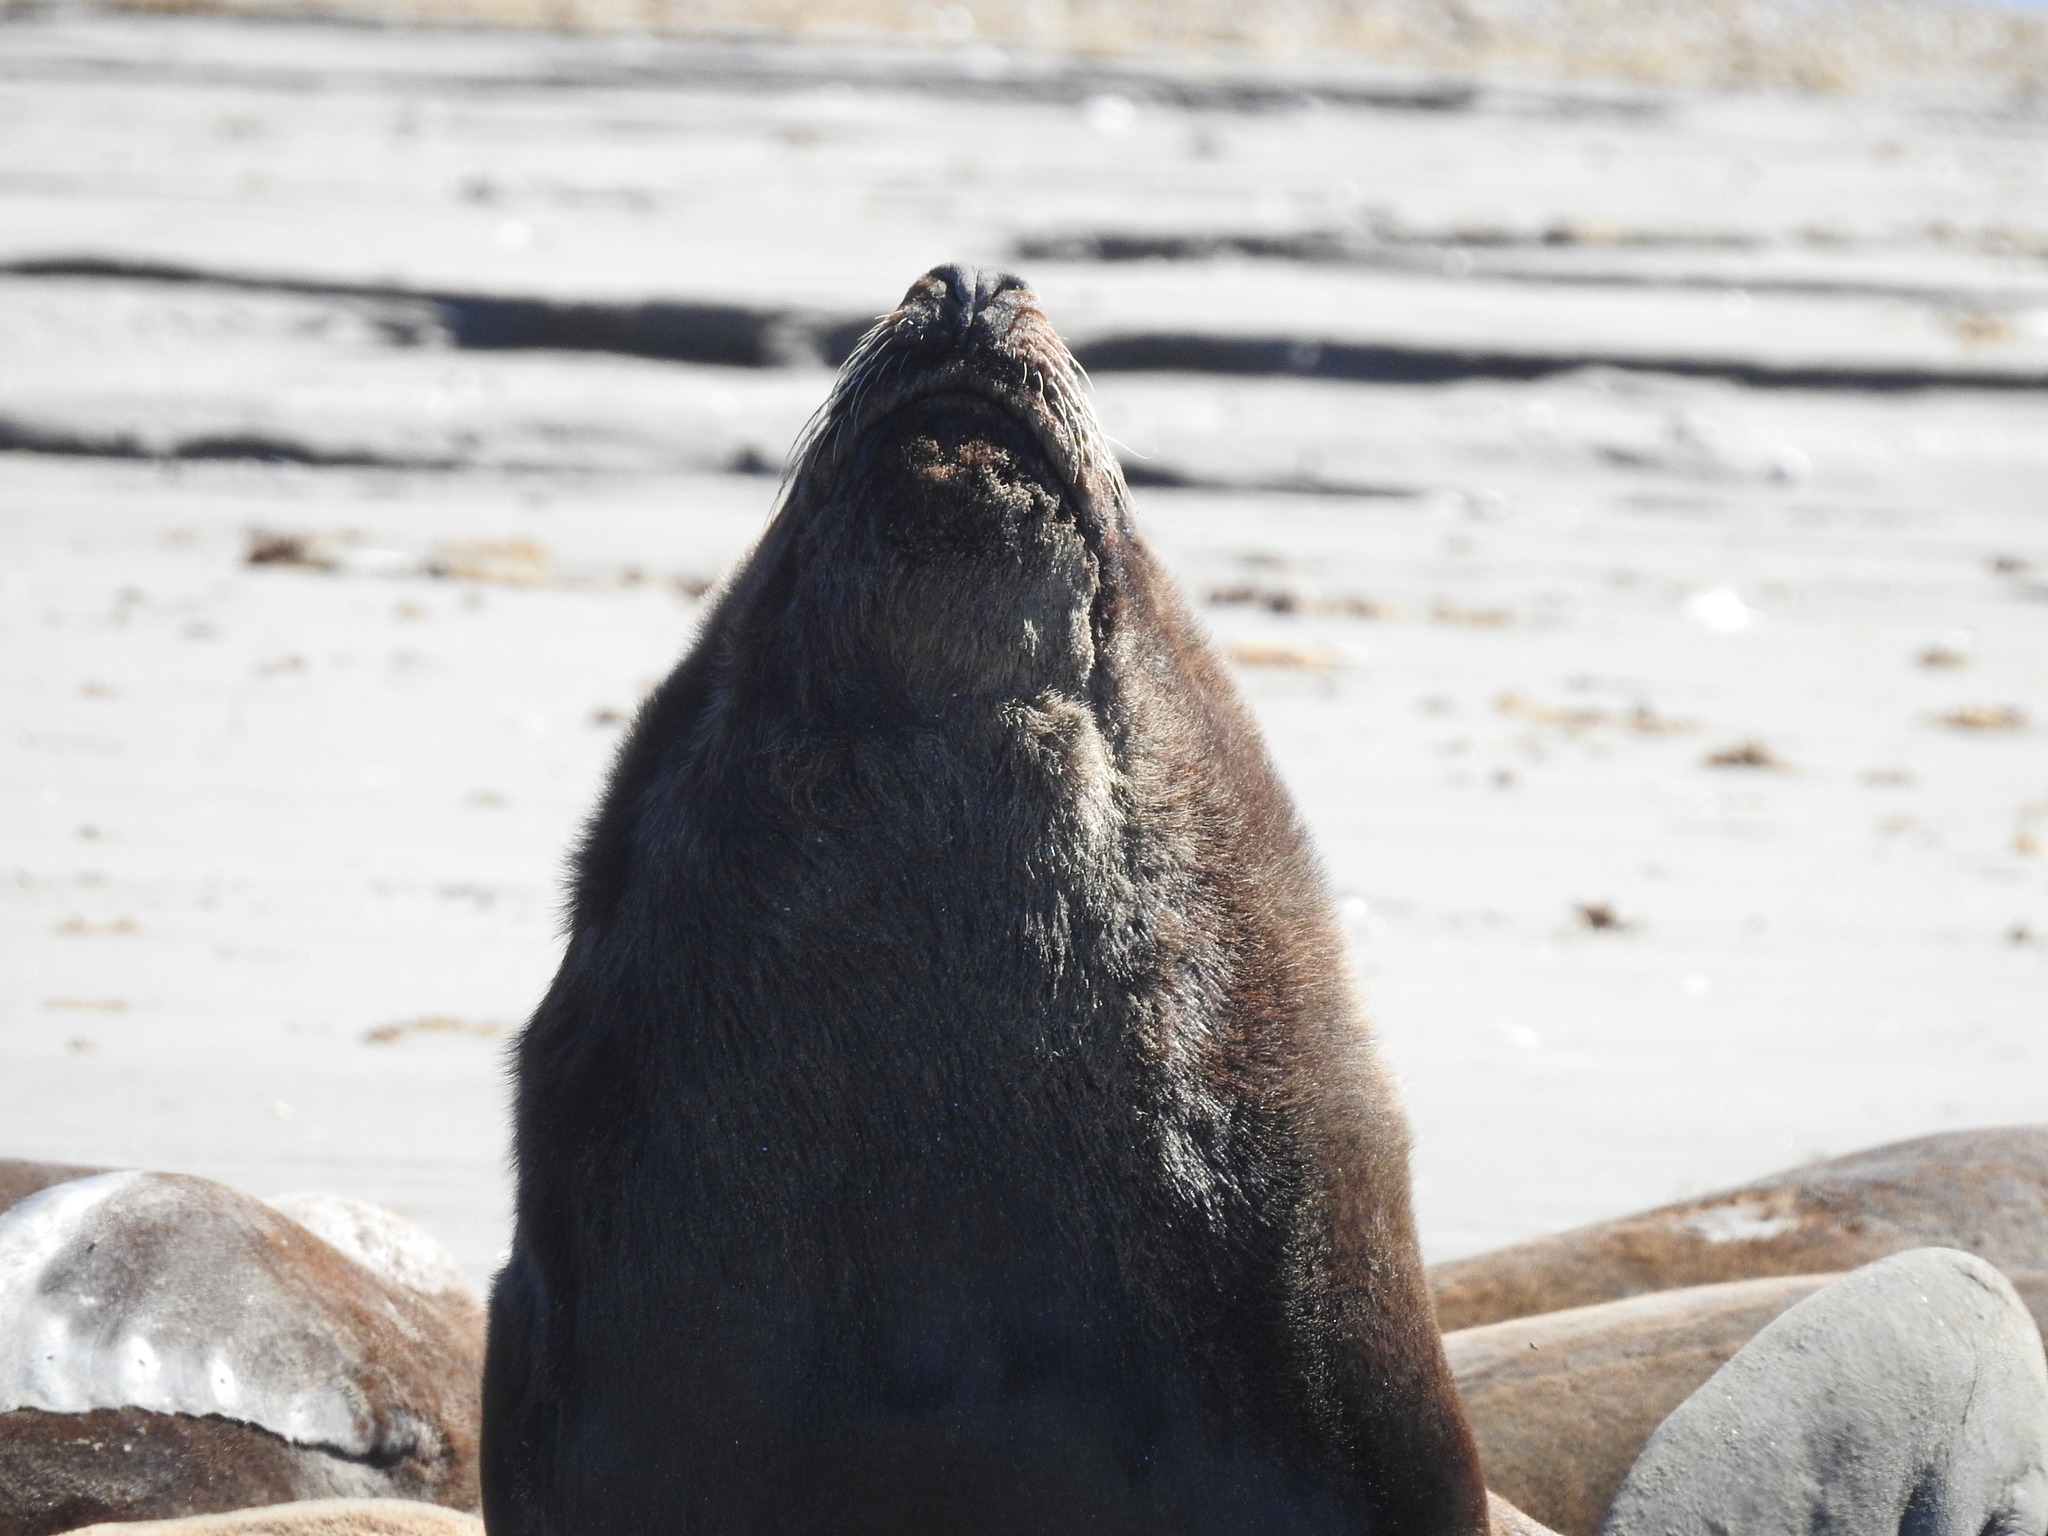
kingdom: Animalia
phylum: Chordata
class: Mammalia
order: Carnivora
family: Otariidae
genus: Otaria
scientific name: Otaria byronia
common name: South american sea lion
